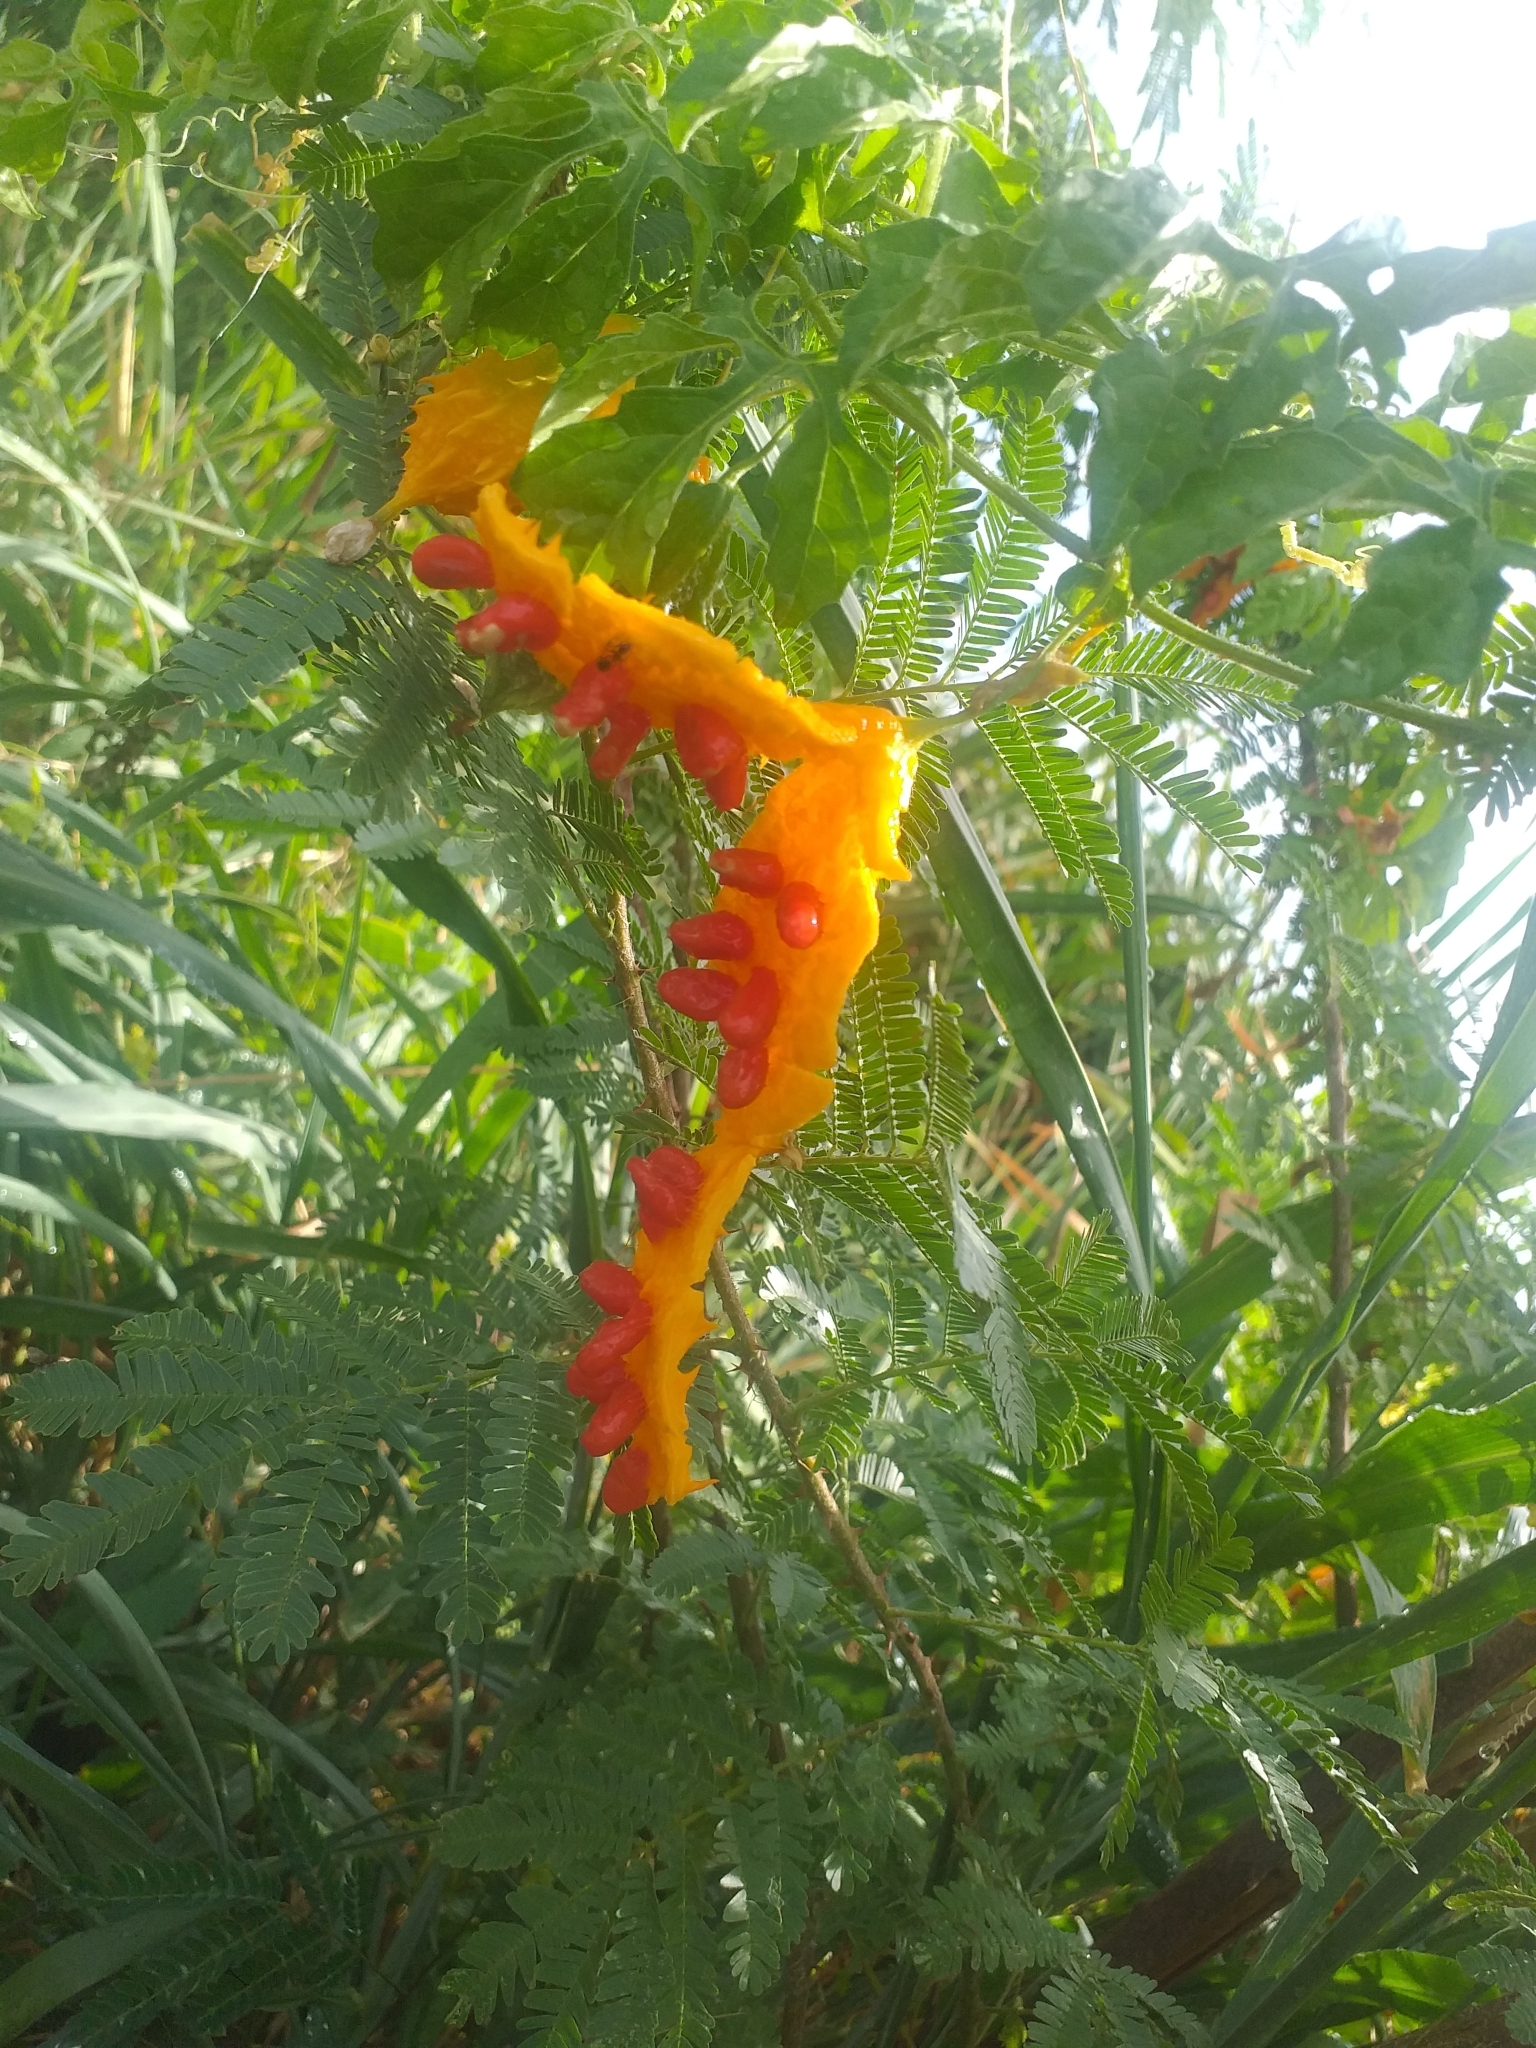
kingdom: Plantae
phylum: Tracheophyta
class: Magnoliopsida
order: Cucurbitales
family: Cucurbitaceae
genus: Momordica
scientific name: Momordica charantia
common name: Balsampear
